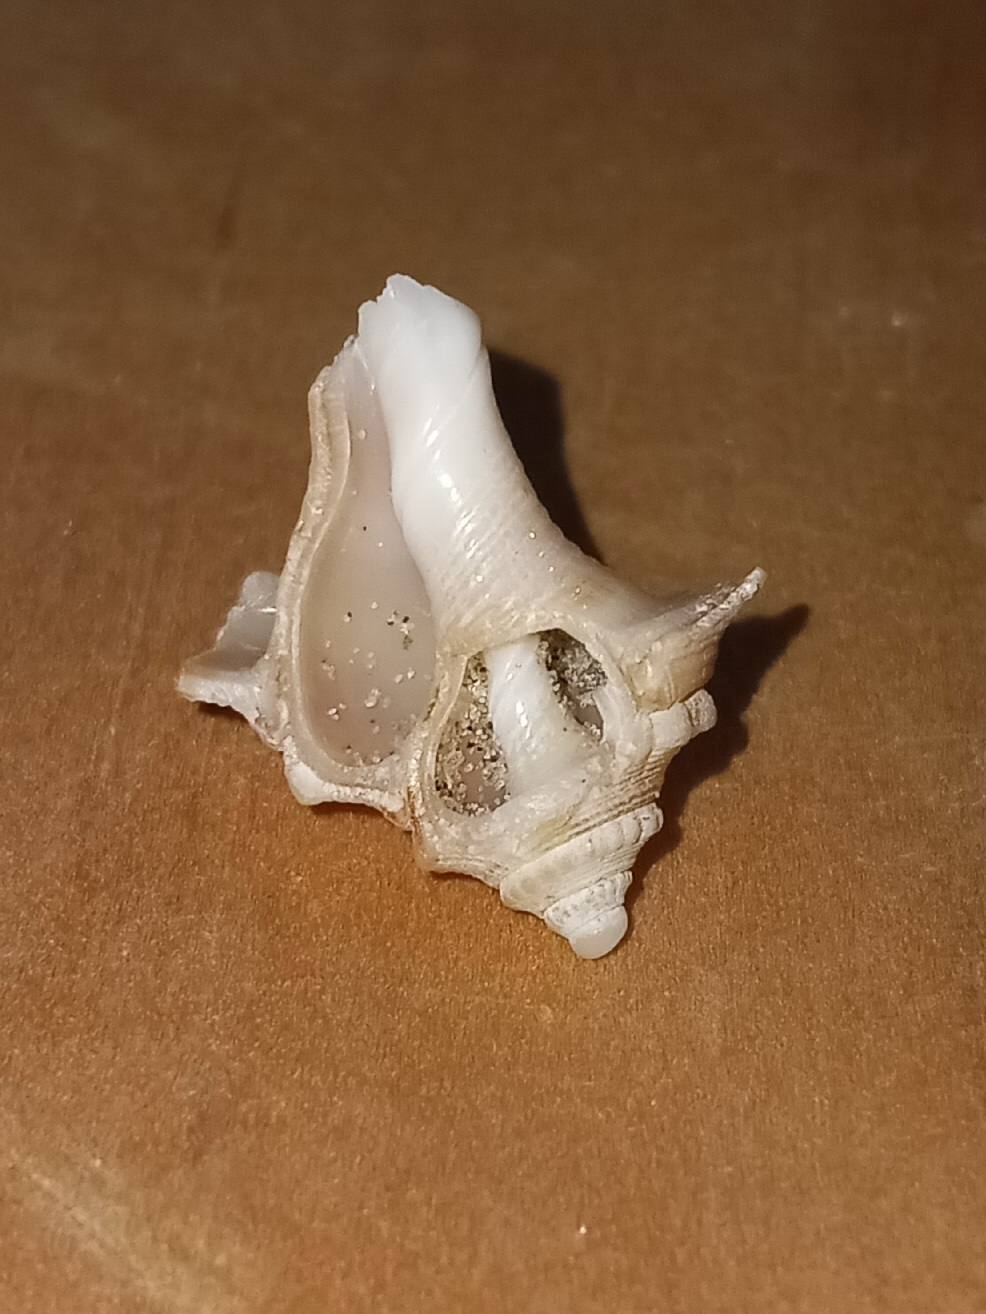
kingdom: Animalia
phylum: Mollusca
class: Gastropoda
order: Neogastropoda
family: Busyconidae
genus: Busycon
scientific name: Busycon carica
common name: Knobbed whelk
